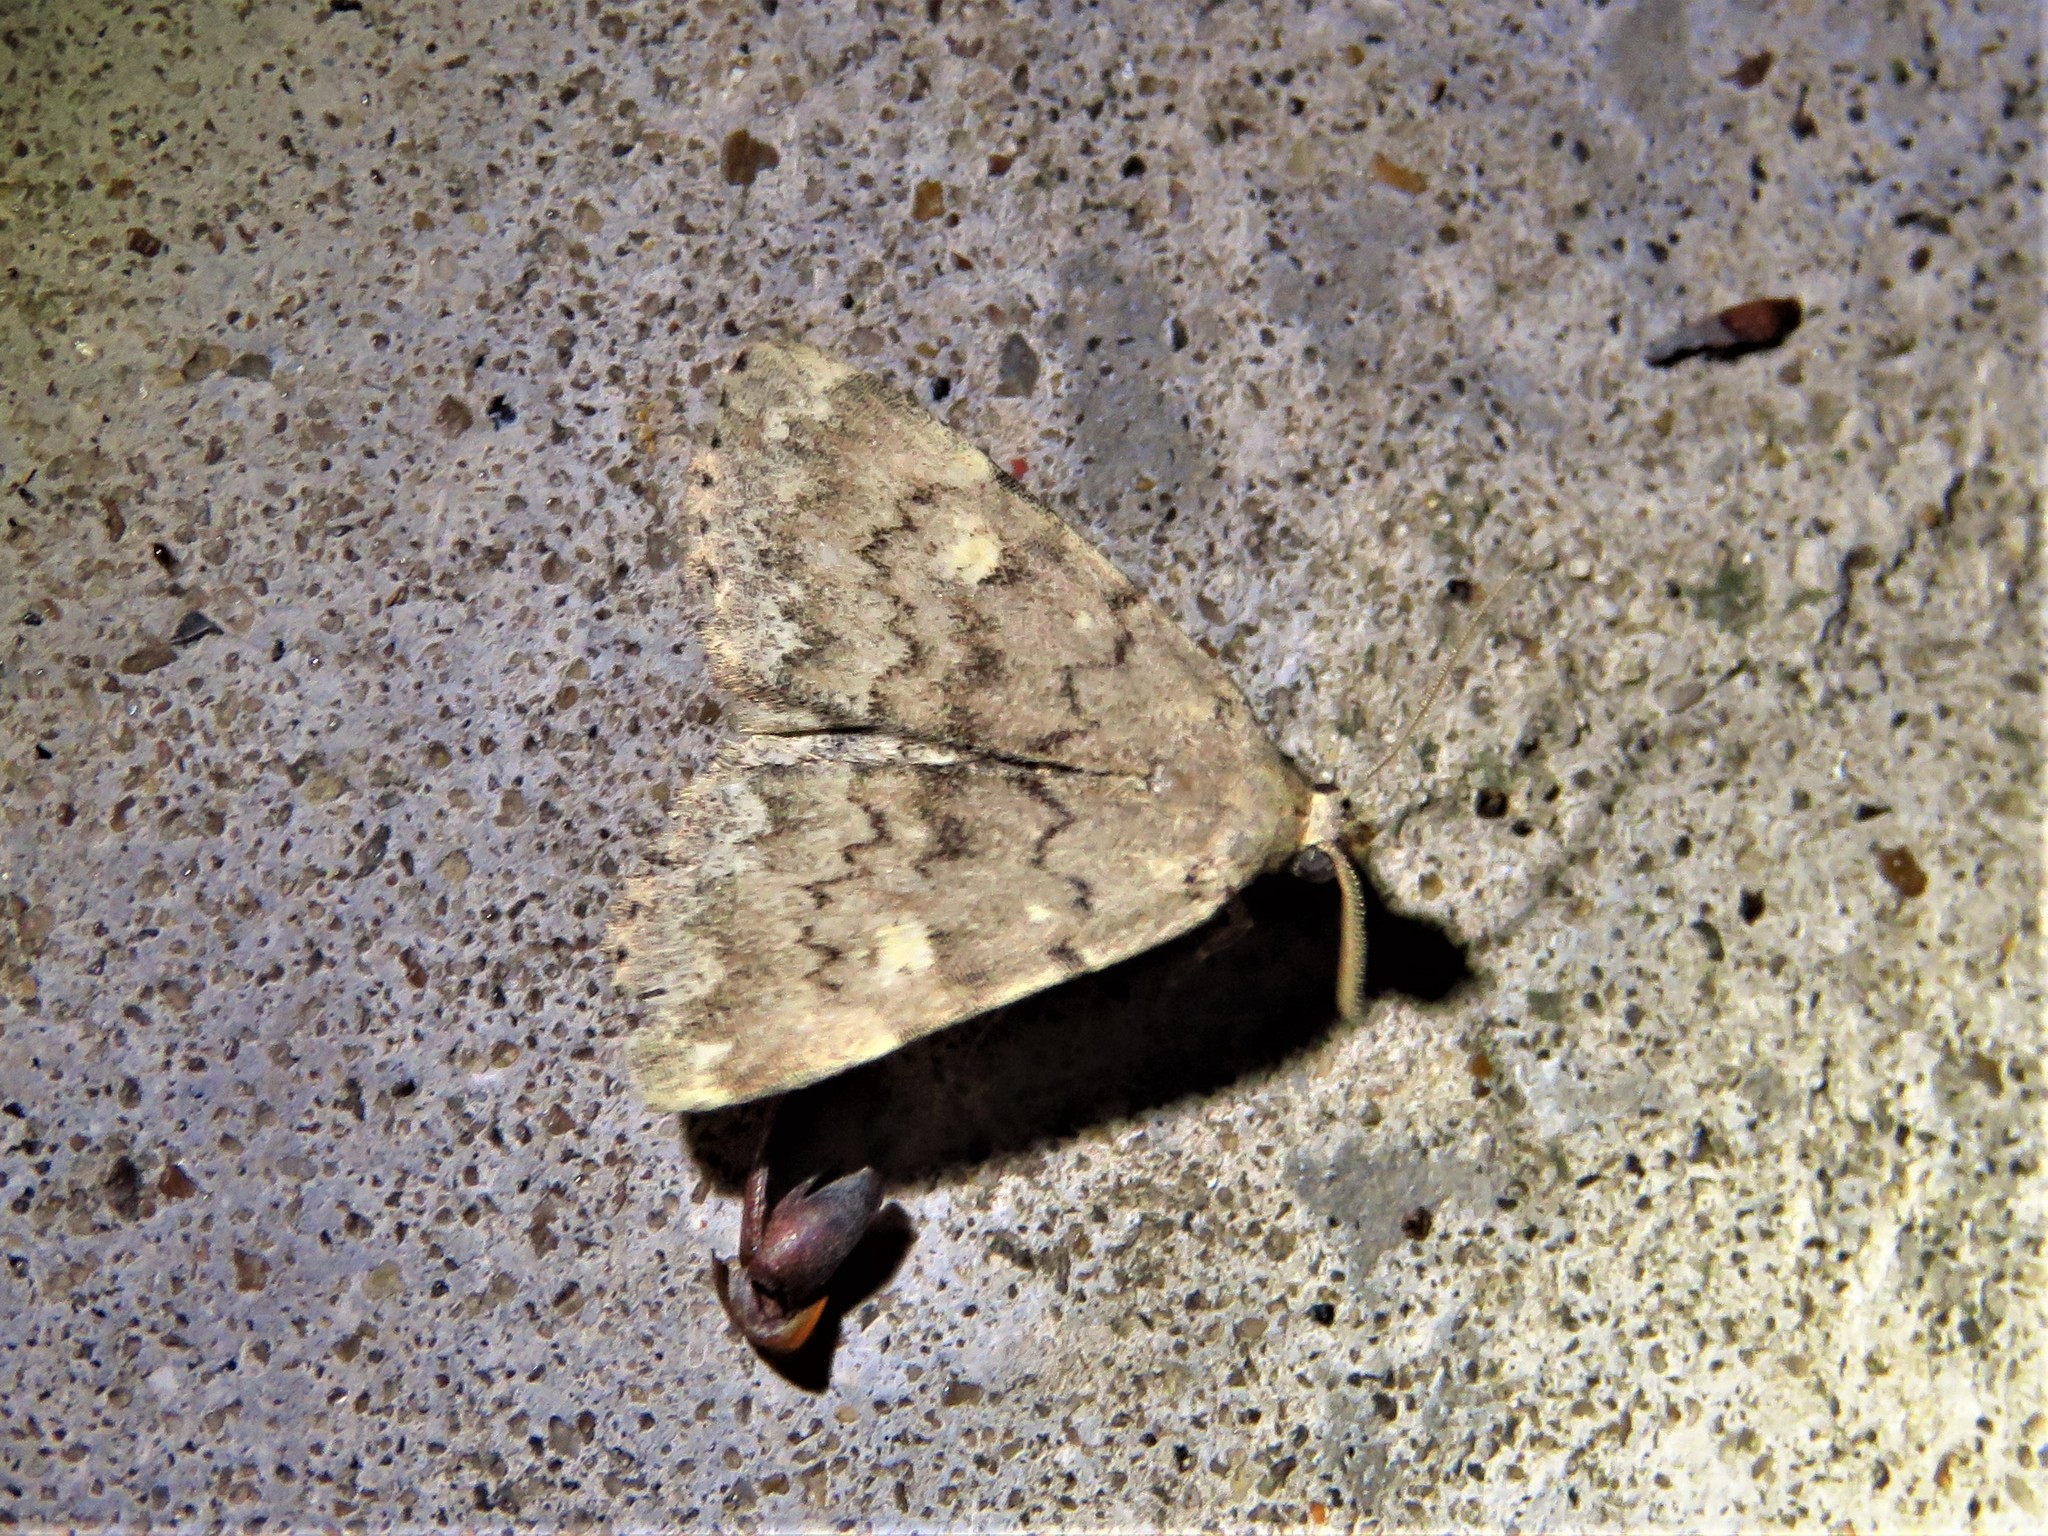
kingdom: Animalia
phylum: Arthropoda
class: Insecta
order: Lepidoptera
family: Erebidae
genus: Idia
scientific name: Idia aemula
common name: Common idia moth
